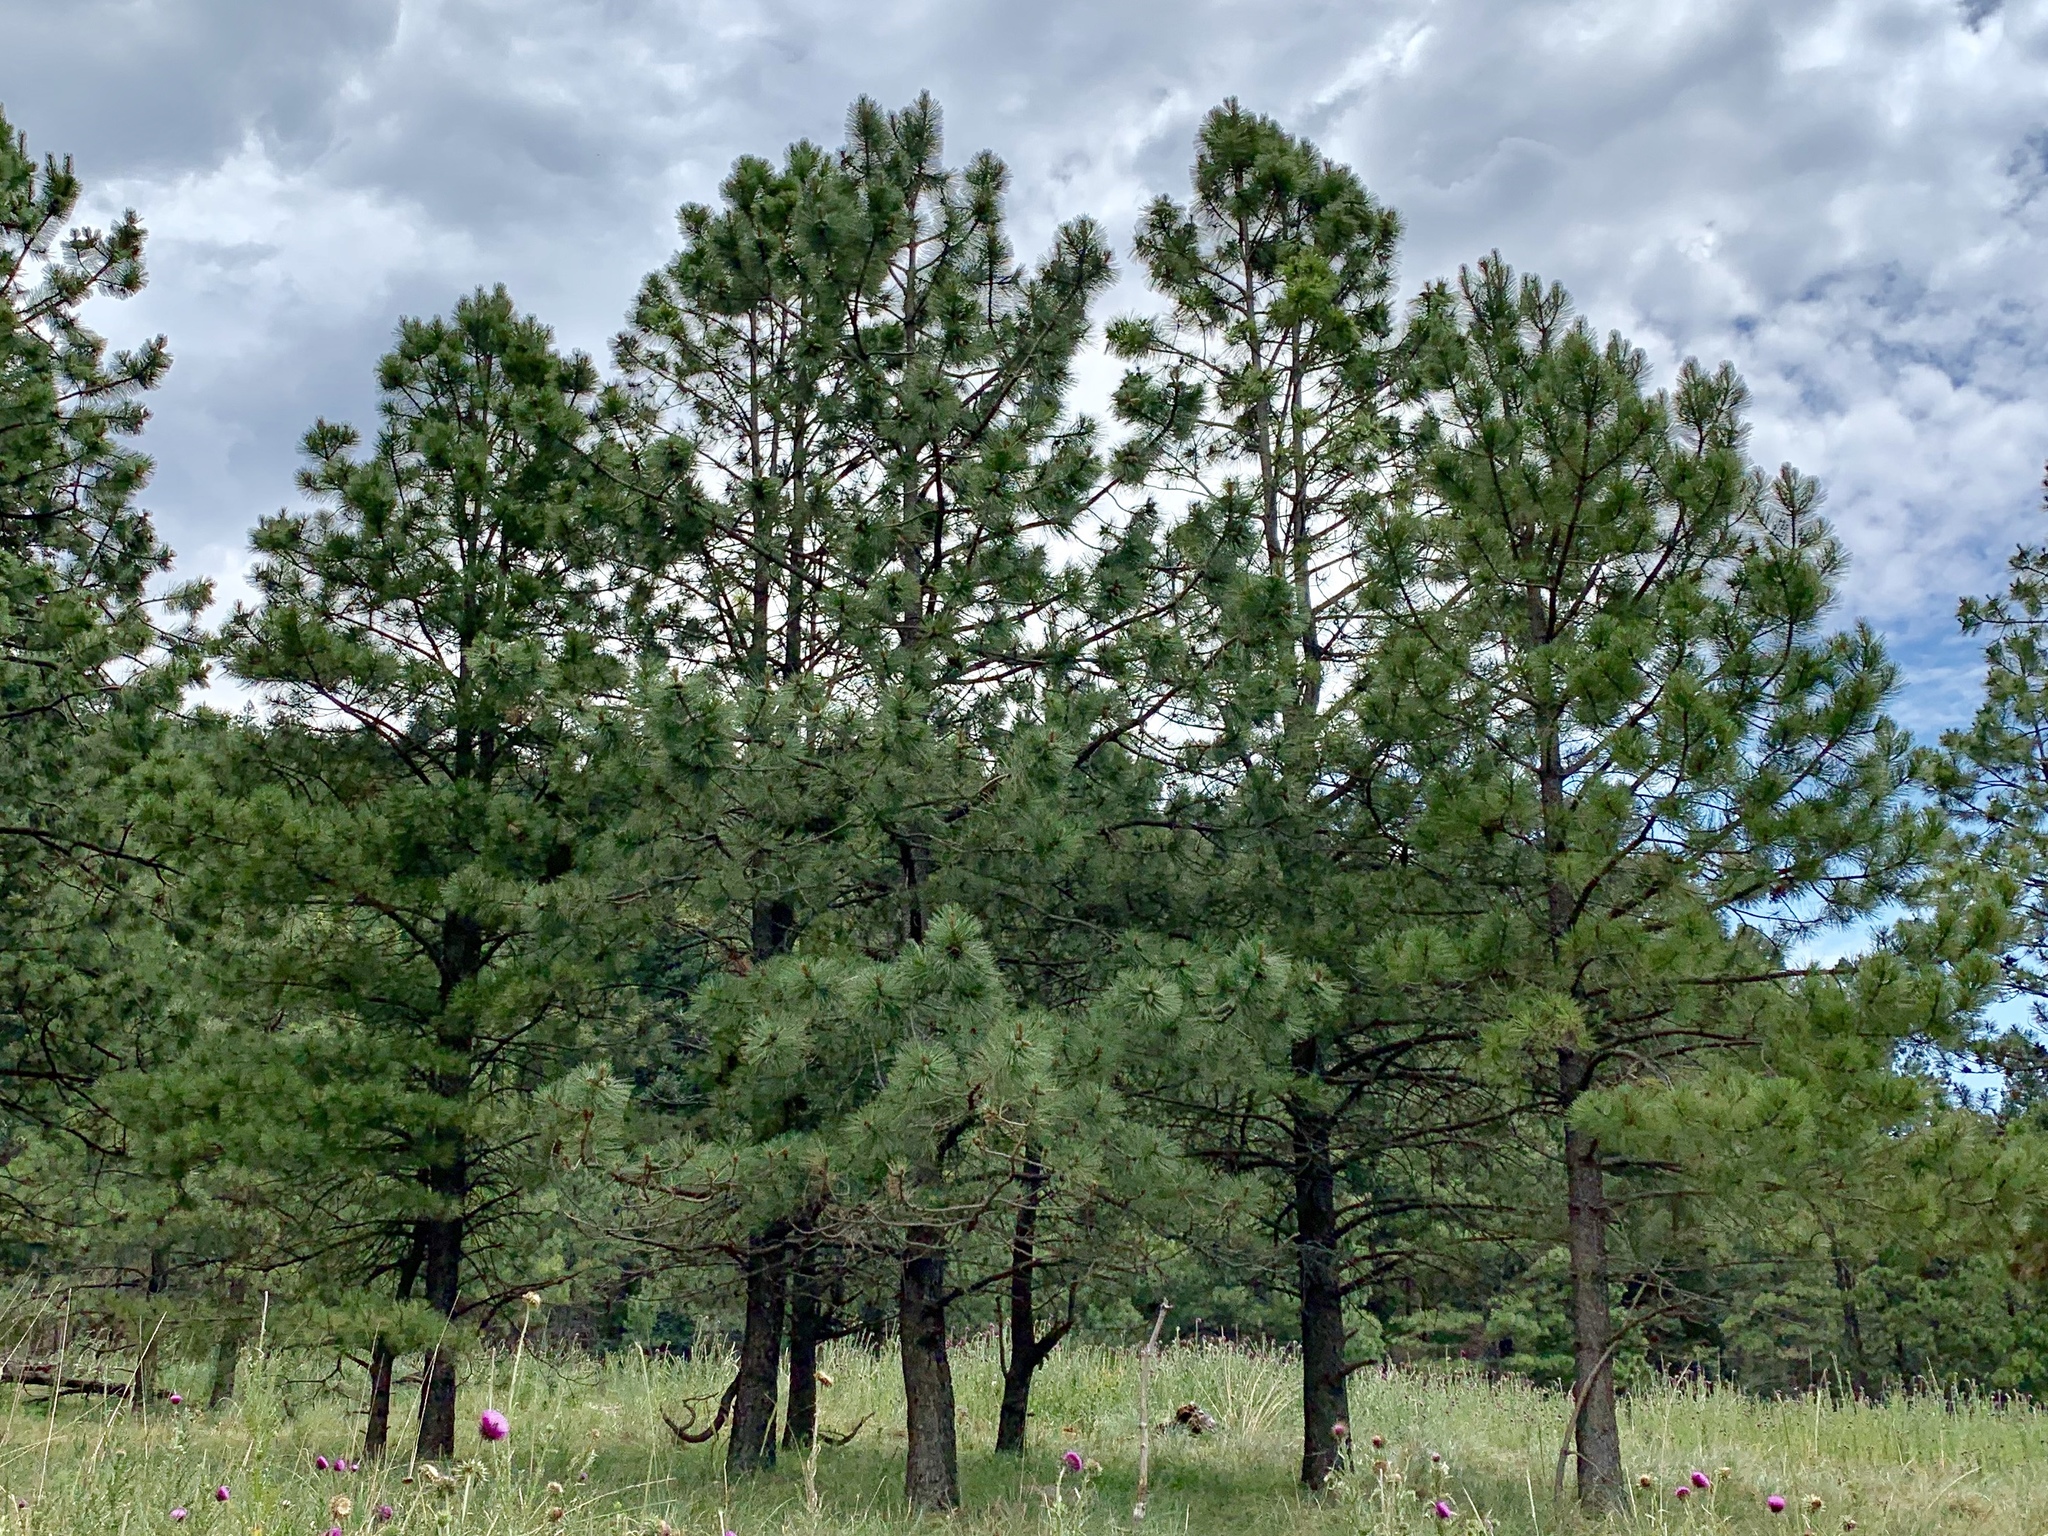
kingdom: Plantae
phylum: Tracheophyta
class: Pinopsida
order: Pinales
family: Pinaceae
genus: Pinus
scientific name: Pinus ponderosa
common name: Western yellow-pine
